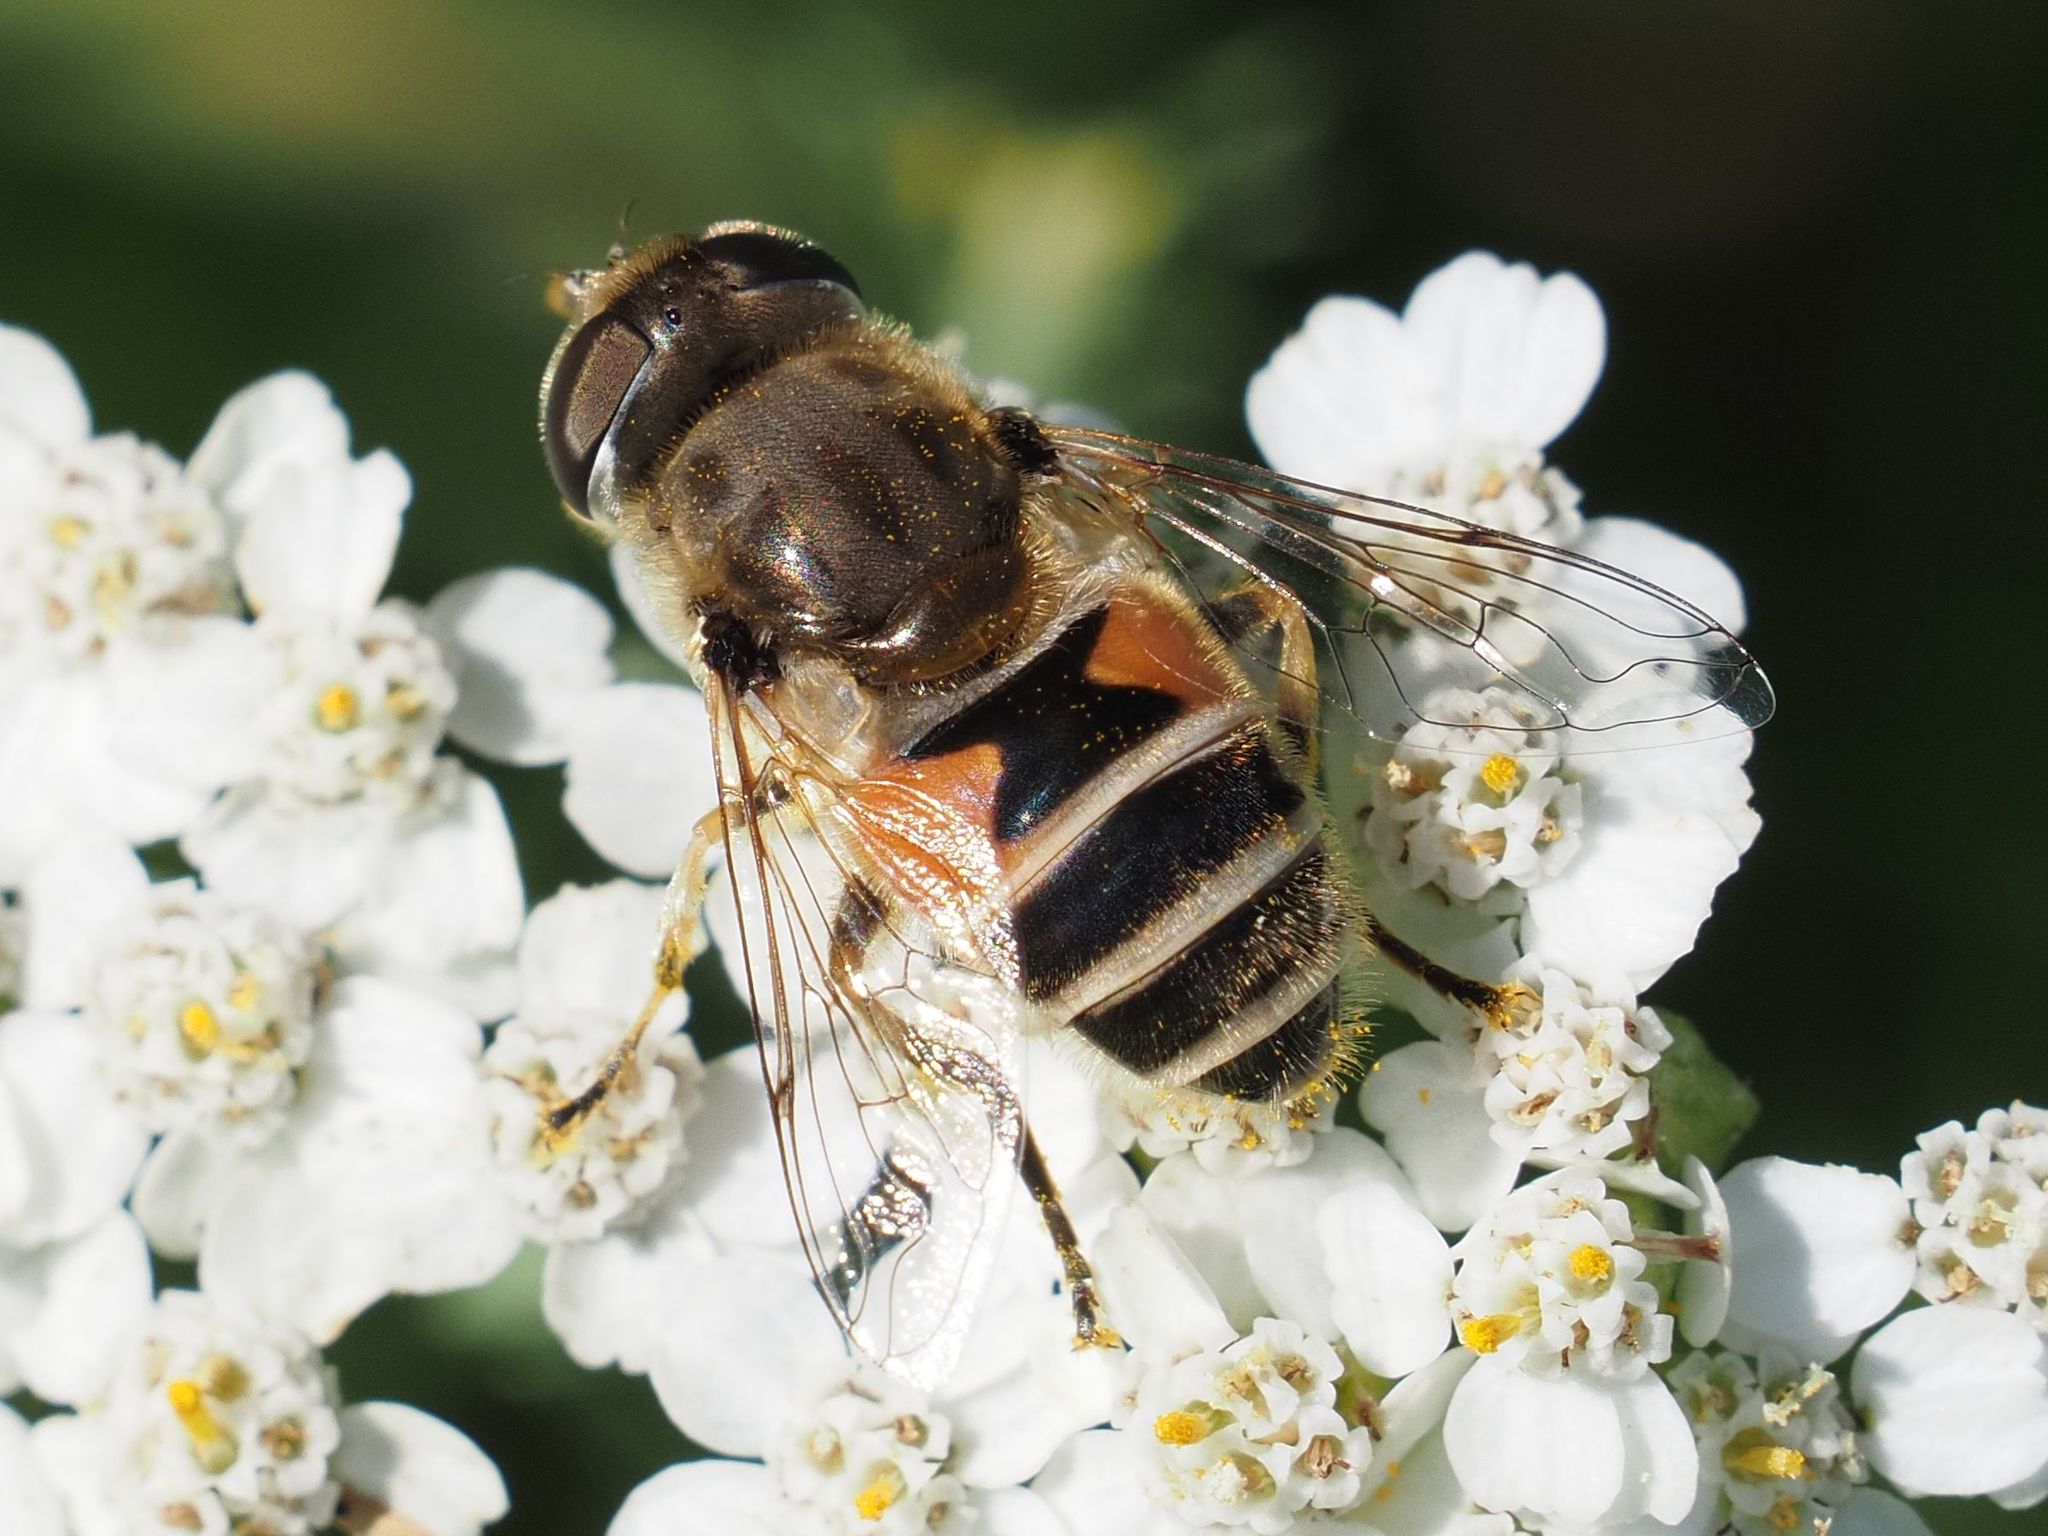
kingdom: Animalia
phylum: Arthropoda
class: Insecta
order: Diptera
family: Syrphidae
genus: Eristalis
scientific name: Eristalis arbustorum
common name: Hover fly
